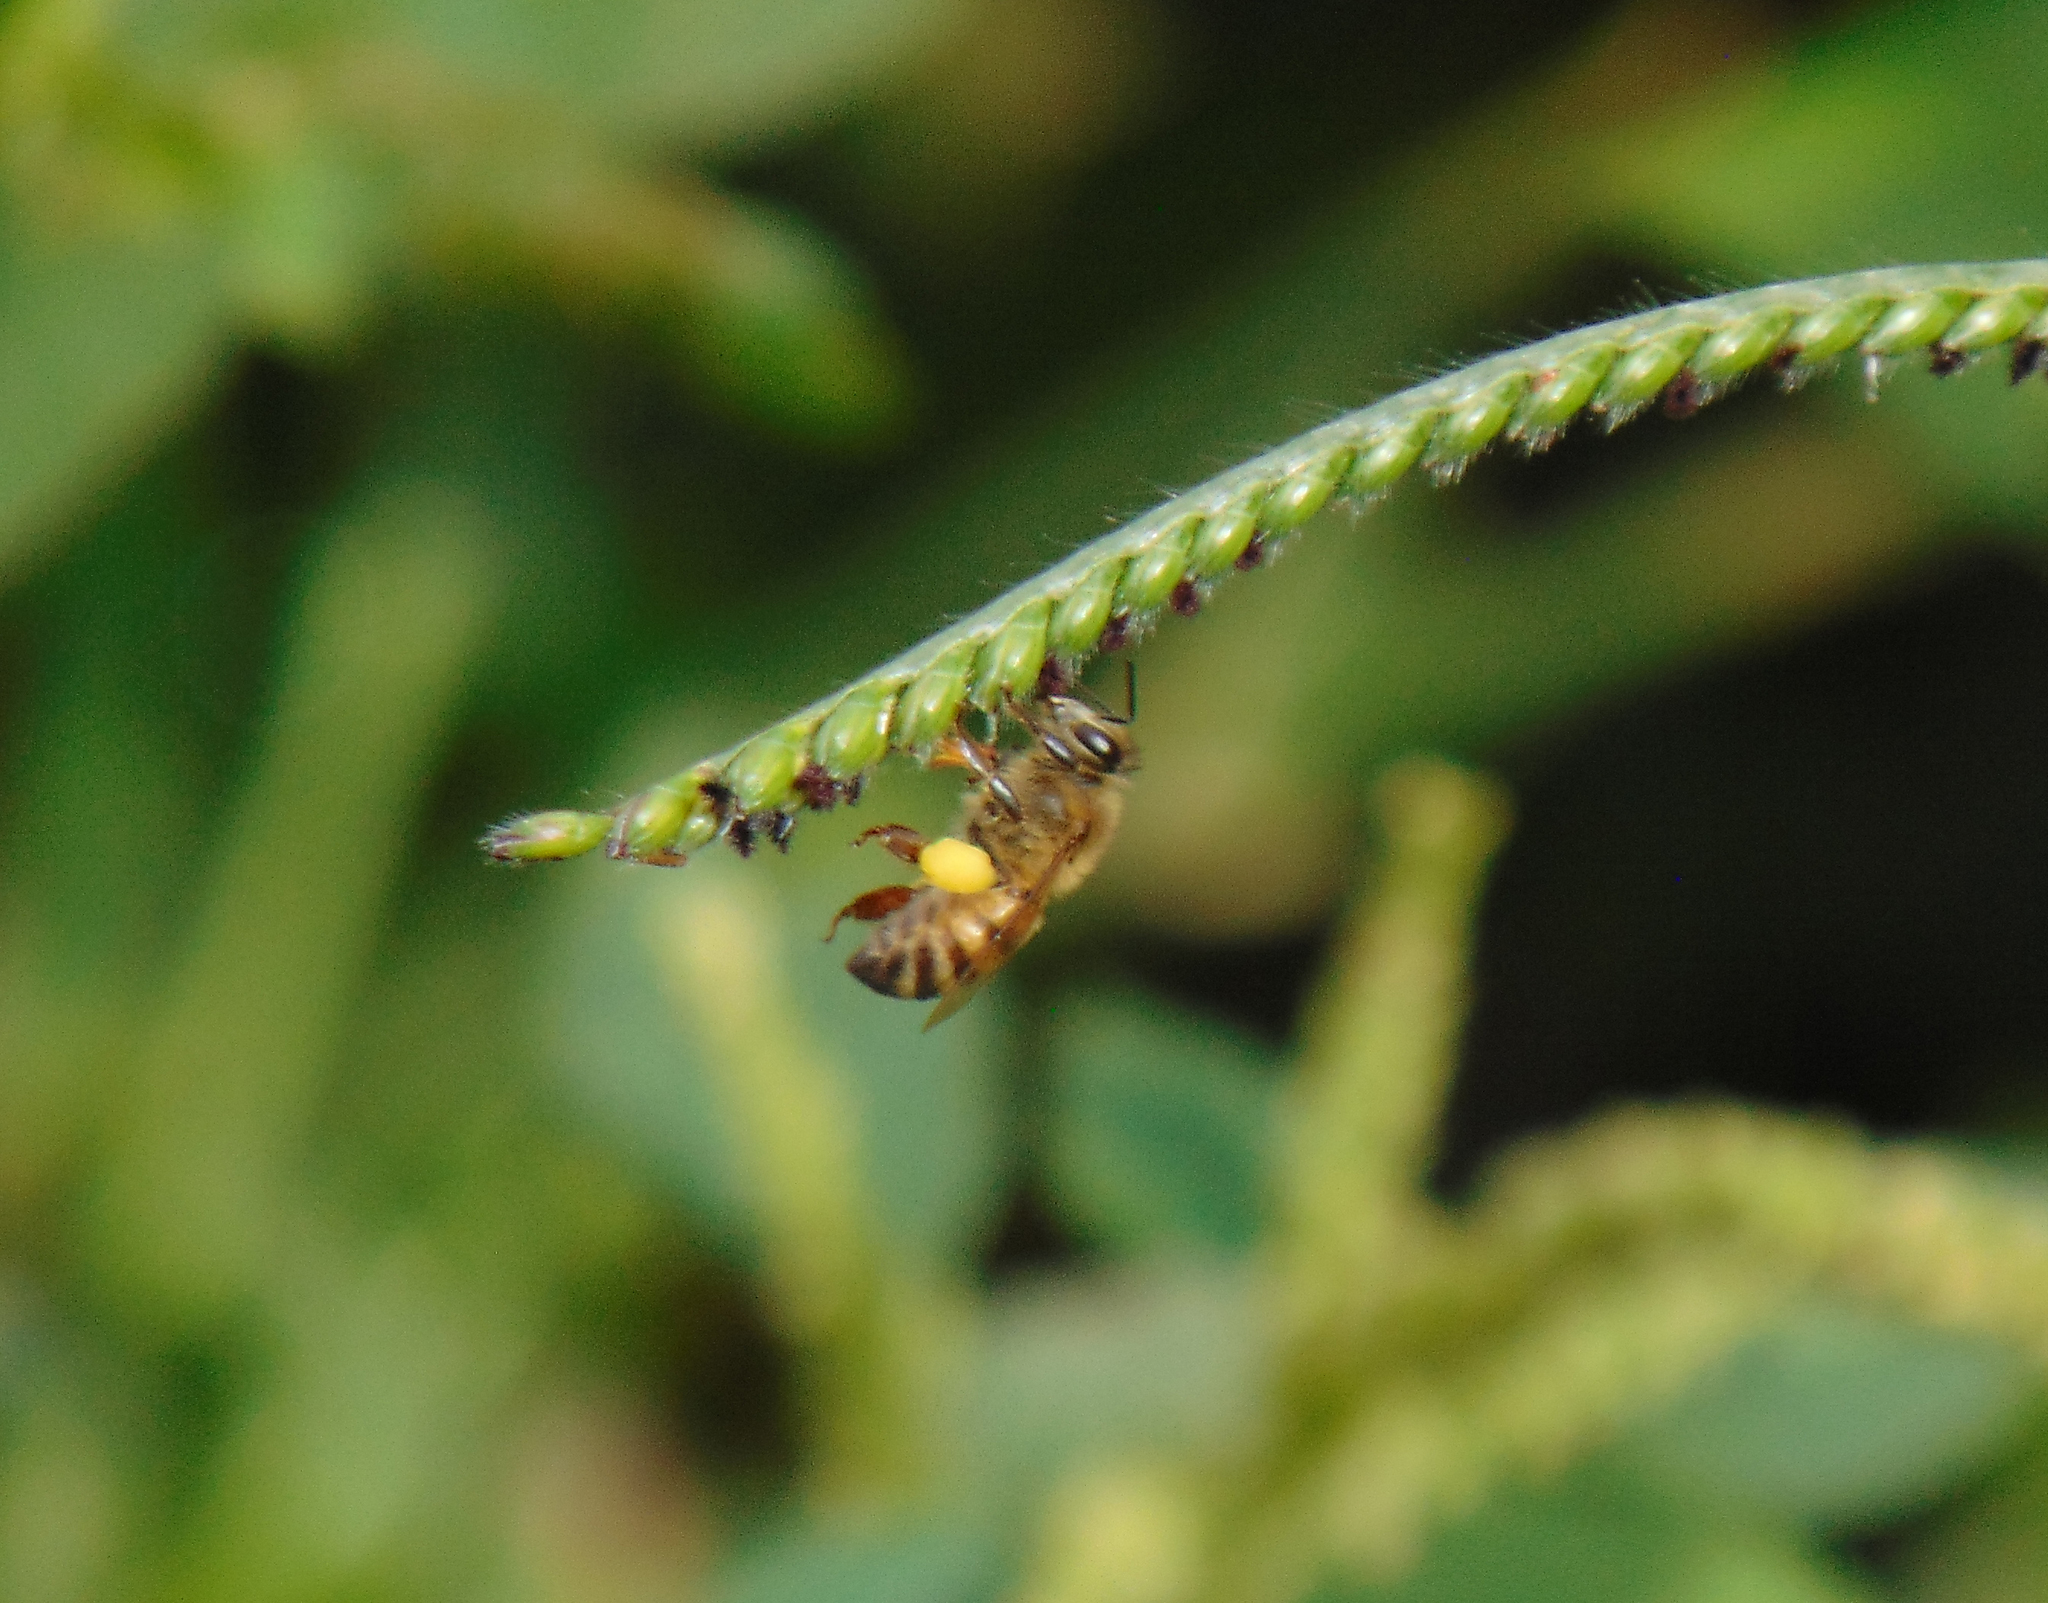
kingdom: Animalia
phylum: Arthropoda
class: Insecta
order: Hymenoptera
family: Apidae
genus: Apis
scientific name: Apis mellifera
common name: Honey bee
